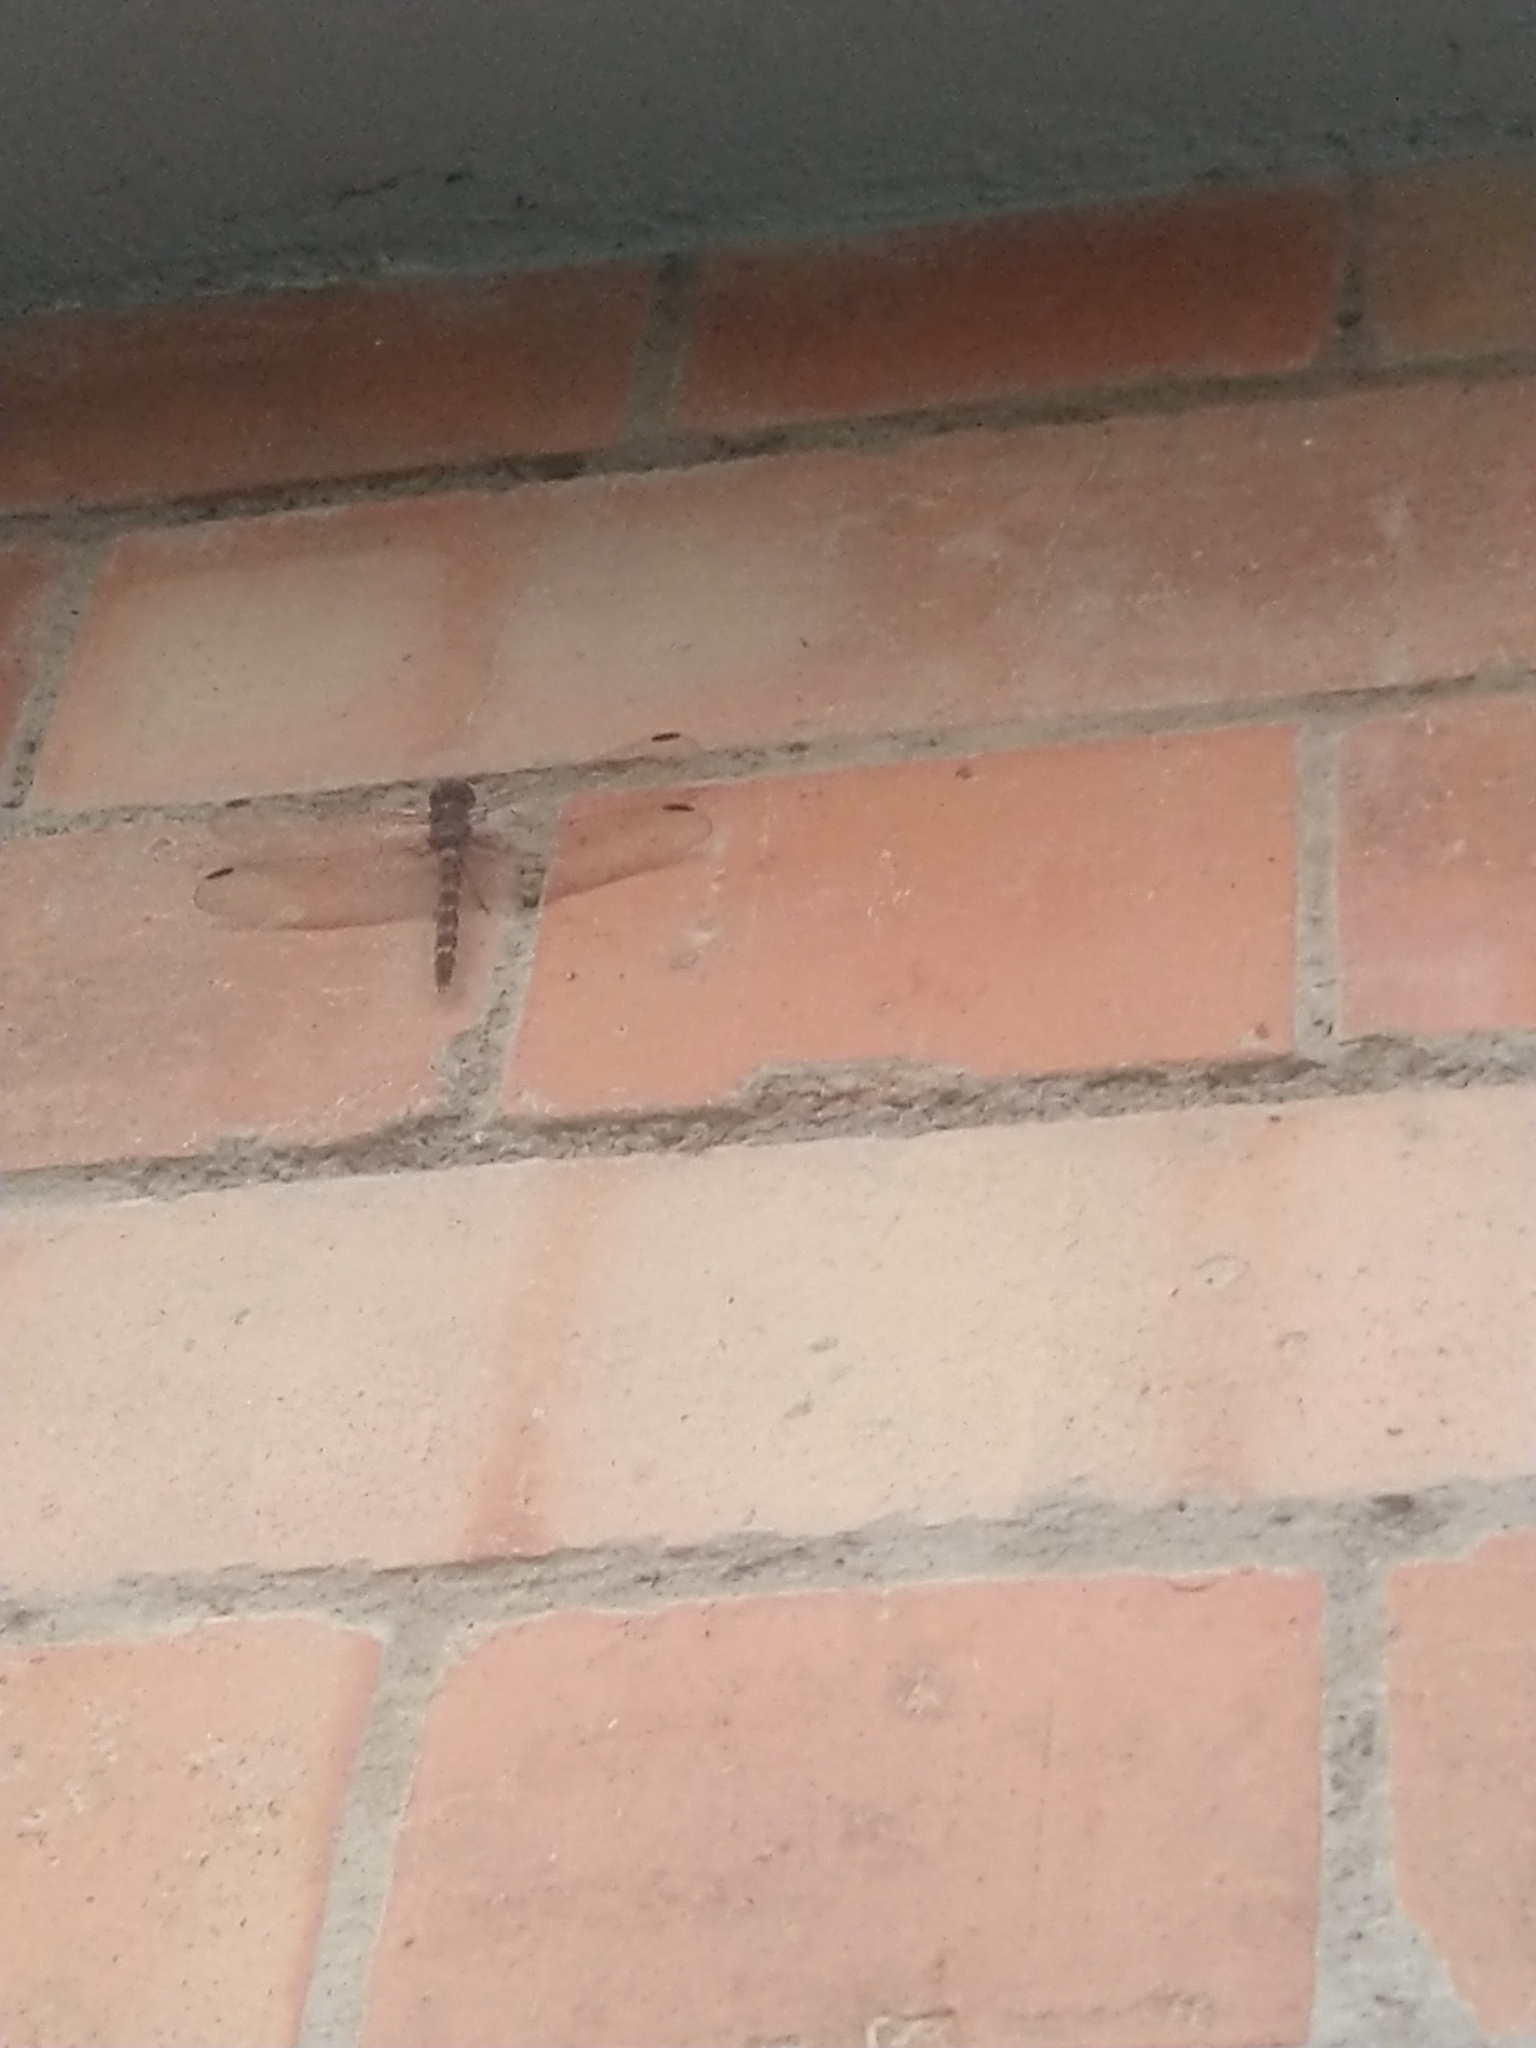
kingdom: Animalia
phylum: Arthropoda
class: Insecta
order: Odonata
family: Libellulidae
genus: Bradinopyga
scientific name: Bradinopyga geminata
